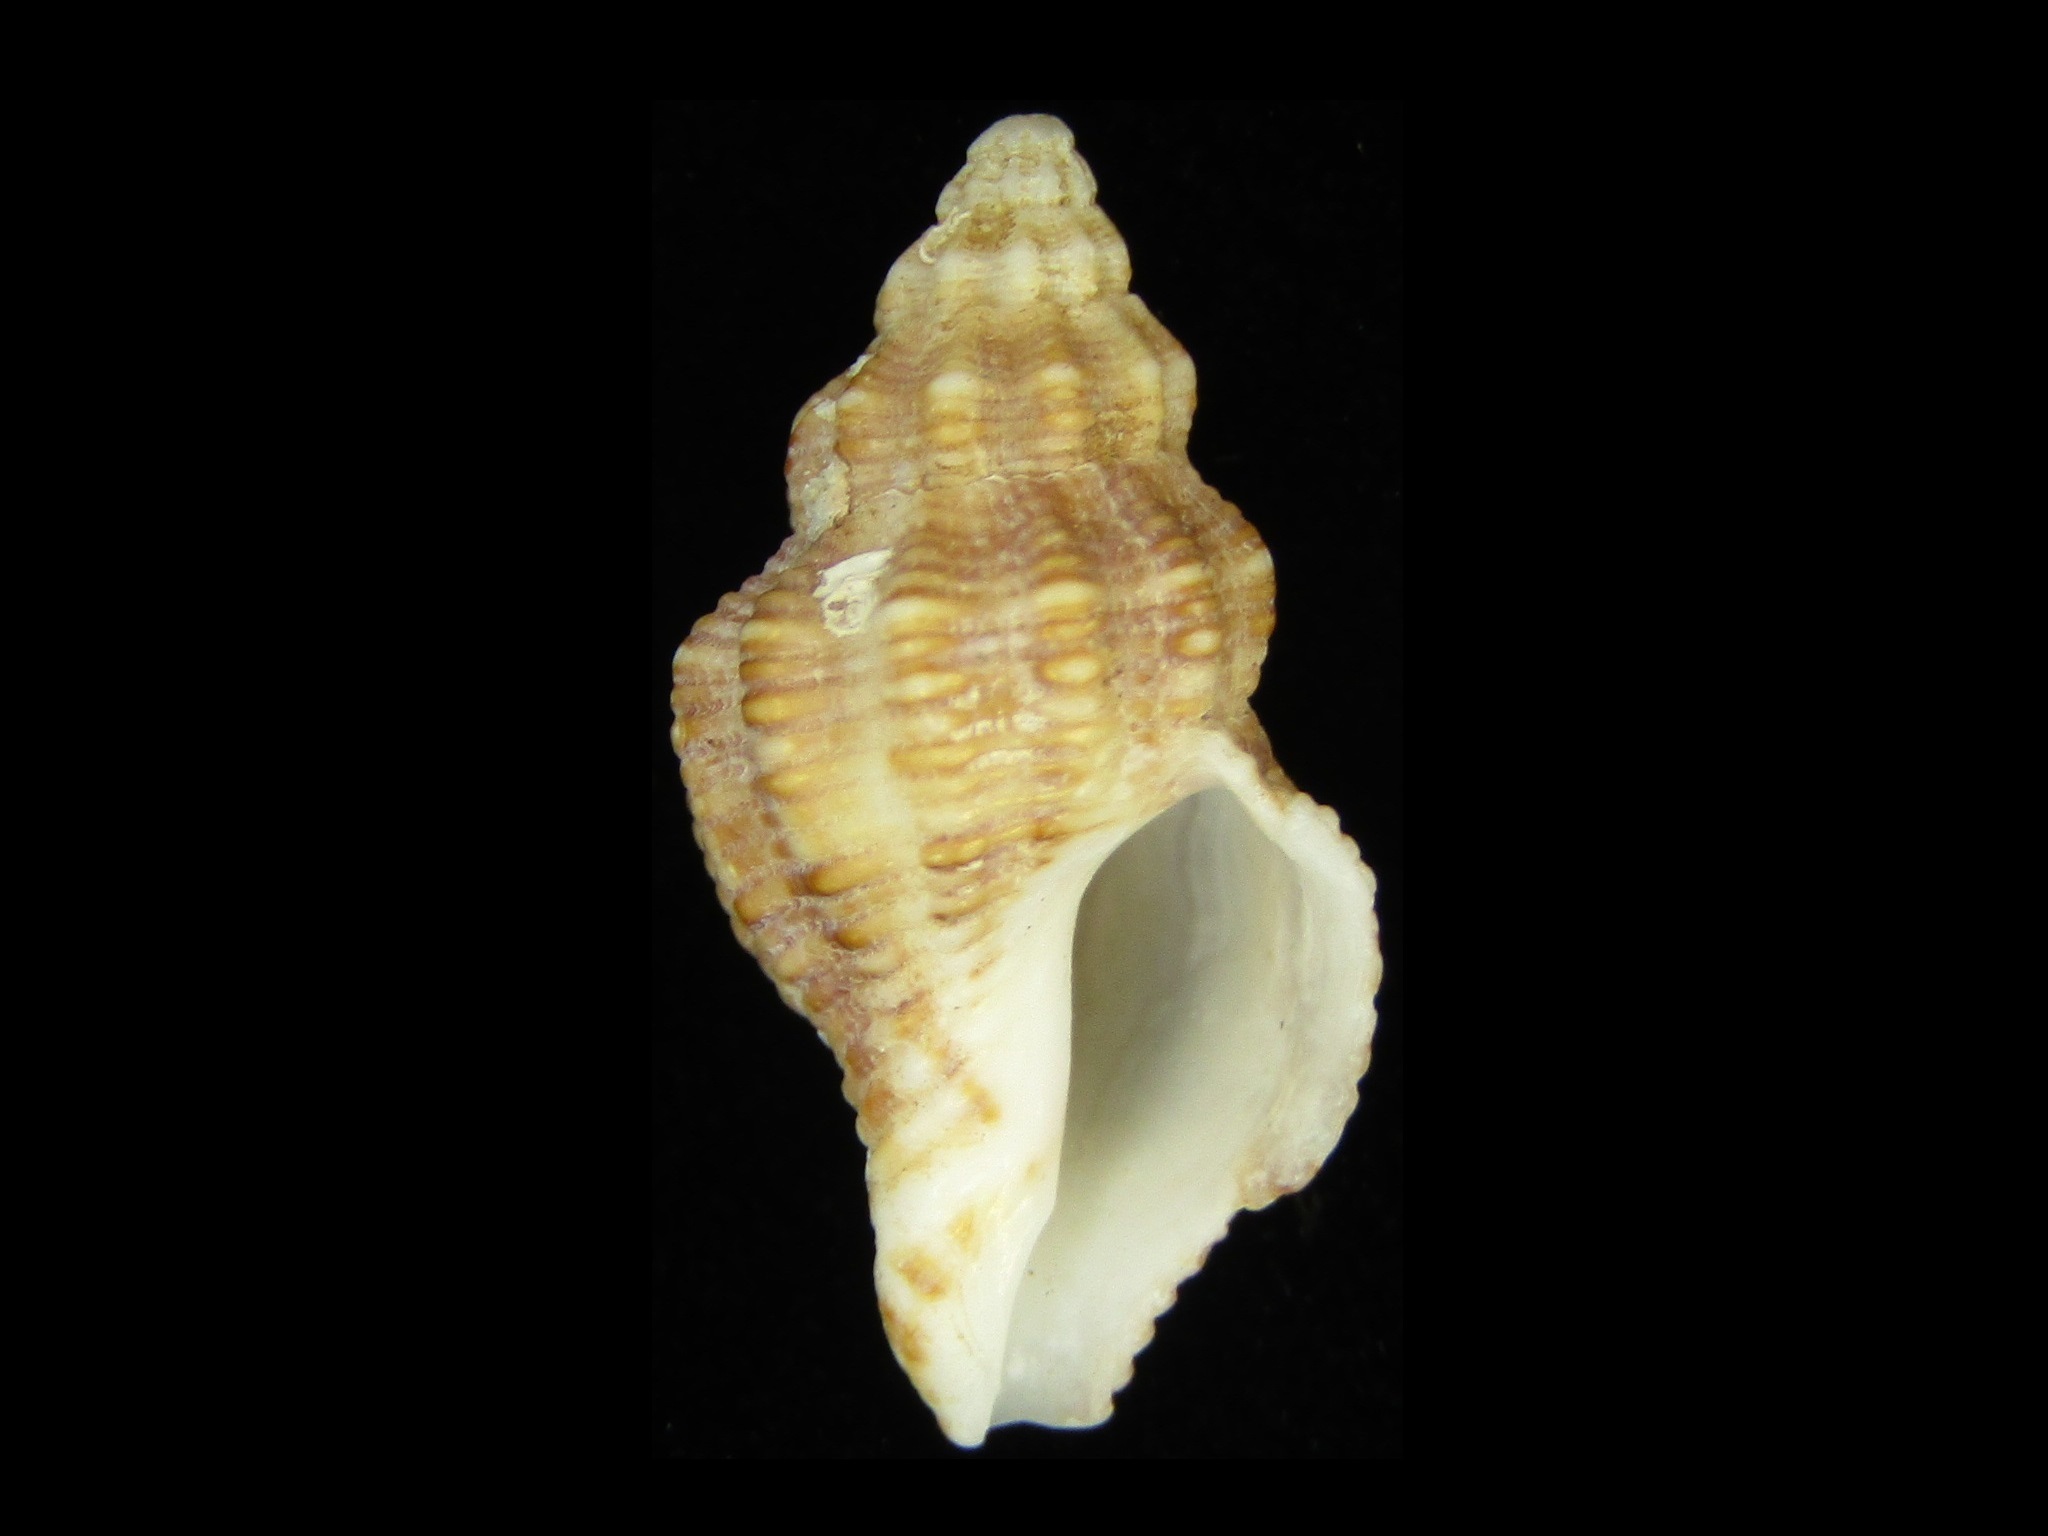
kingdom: Animalia
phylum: Mollusca
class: Gastropoda
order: Neogastropoda
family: Muricidae
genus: Ergalatax
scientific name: Ergalatax contracta
